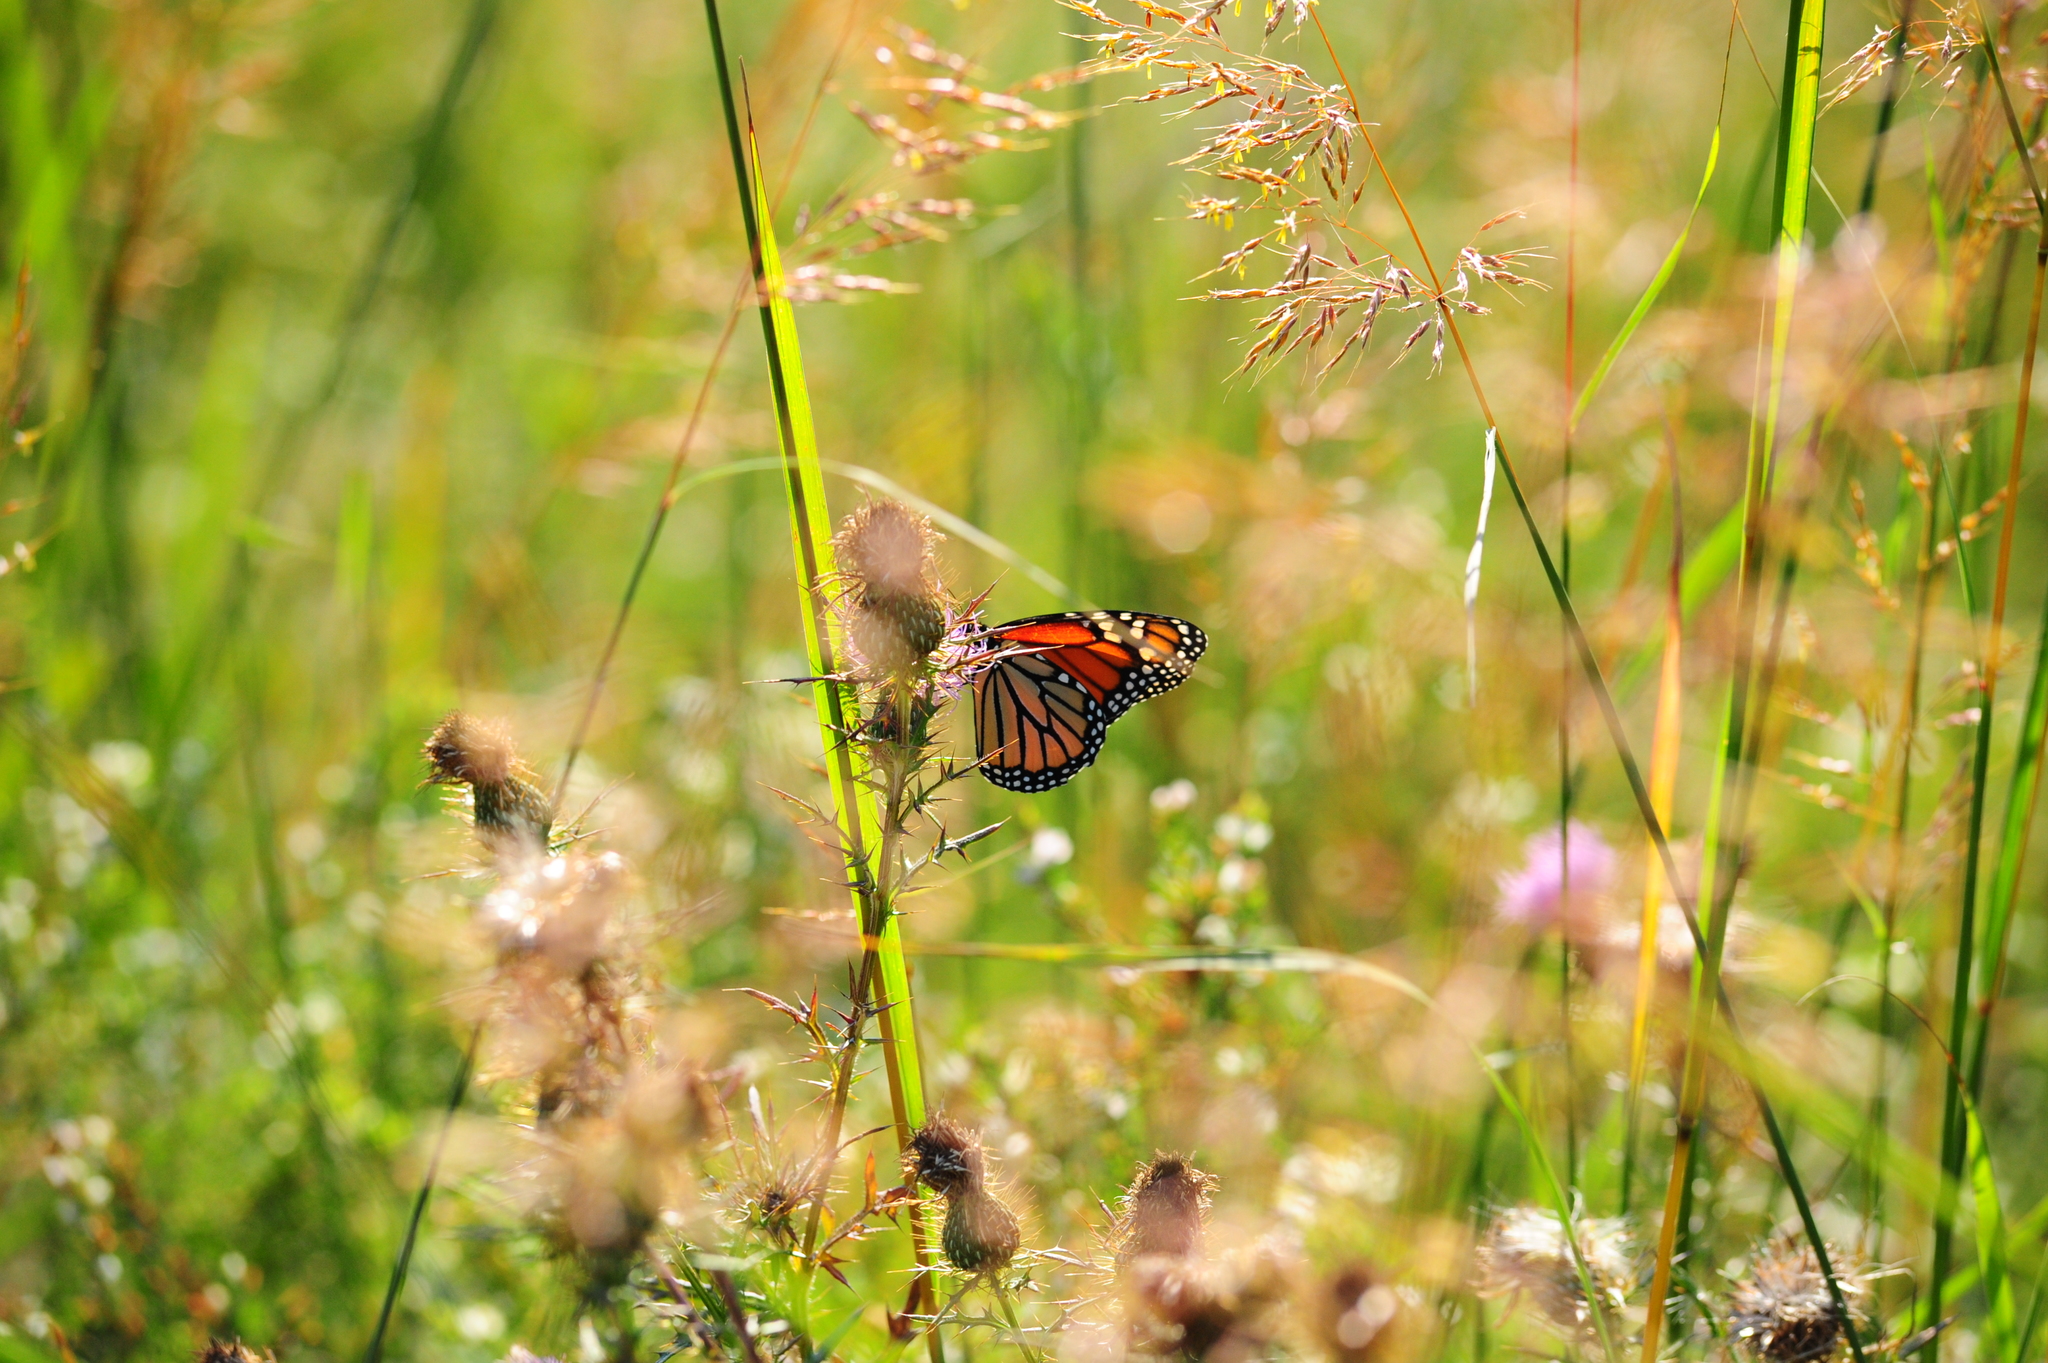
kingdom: Animalia
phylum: Arthropoda
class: Insecta
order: Lepidoptera
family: Nymphalidae
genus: Danaus
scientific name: Danaus plexippus
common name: Monarch
